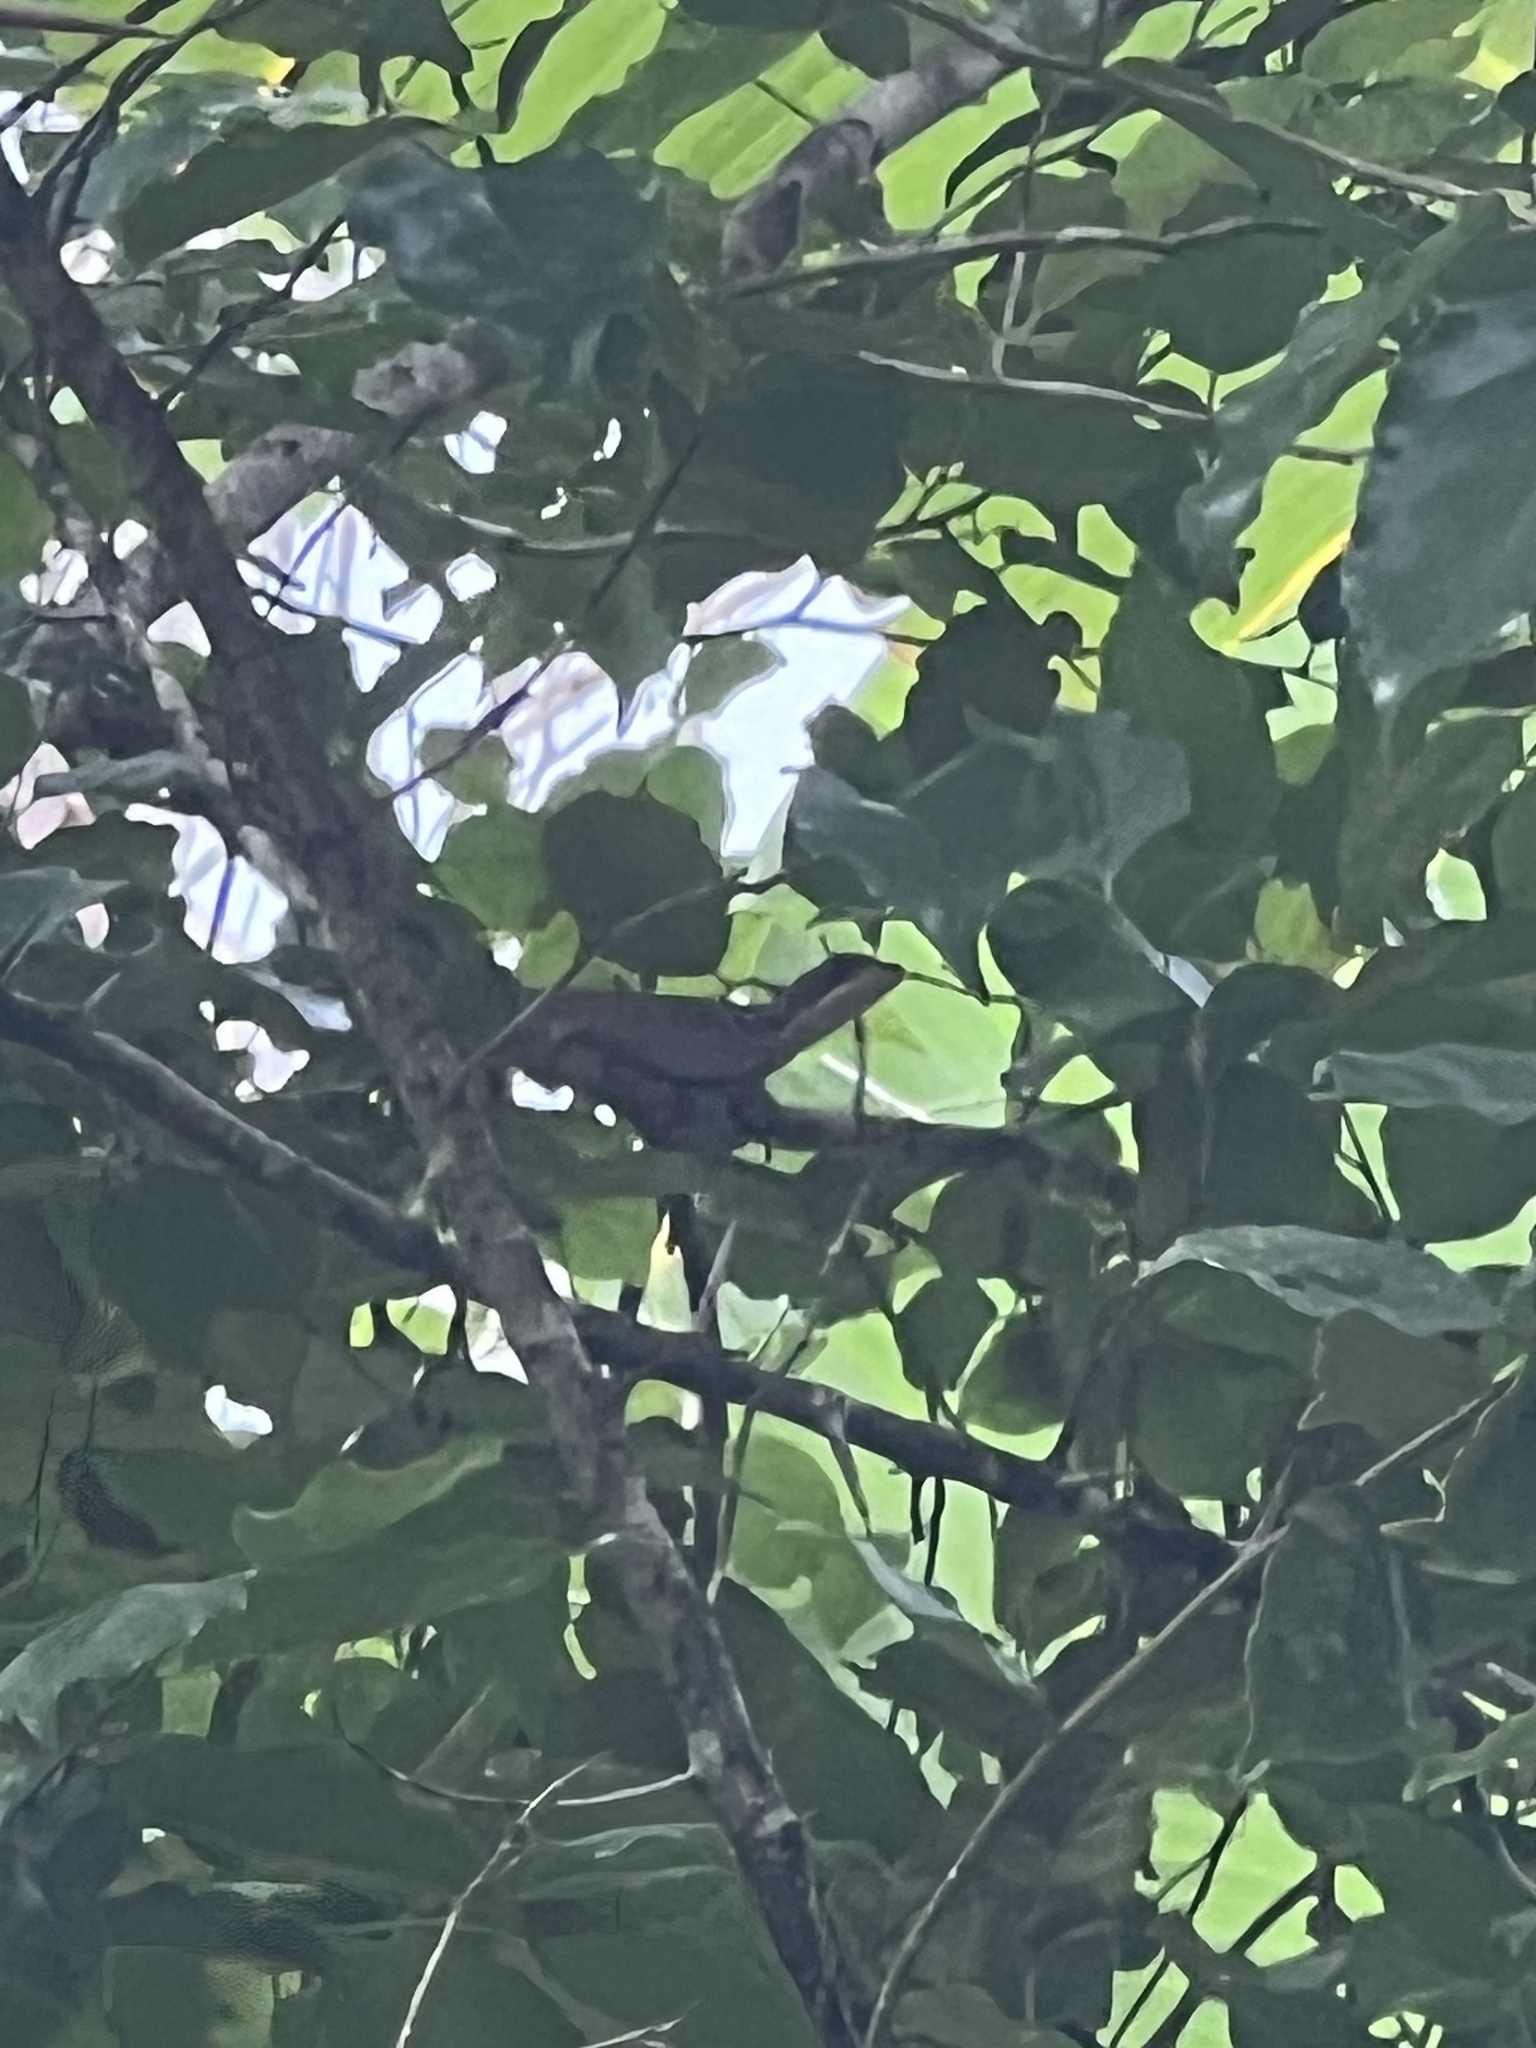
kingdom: Animalia
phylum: Chordata
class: Squamata
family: Corytophanidae
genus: Basiliscus
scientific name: Basiliscus vittatus
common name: Brown basilisk
